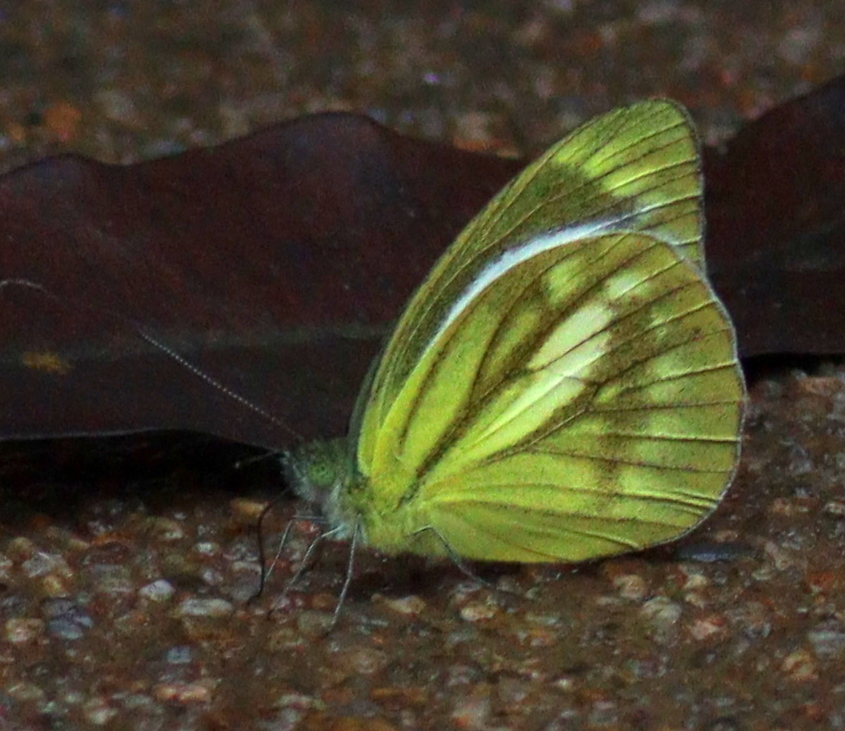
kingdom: Animalia
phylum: Arthropoda
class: Insecta
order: Lepidoptera
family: Pieridae
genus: Cepora
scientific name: Cepora nadina
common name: Lesser gull
